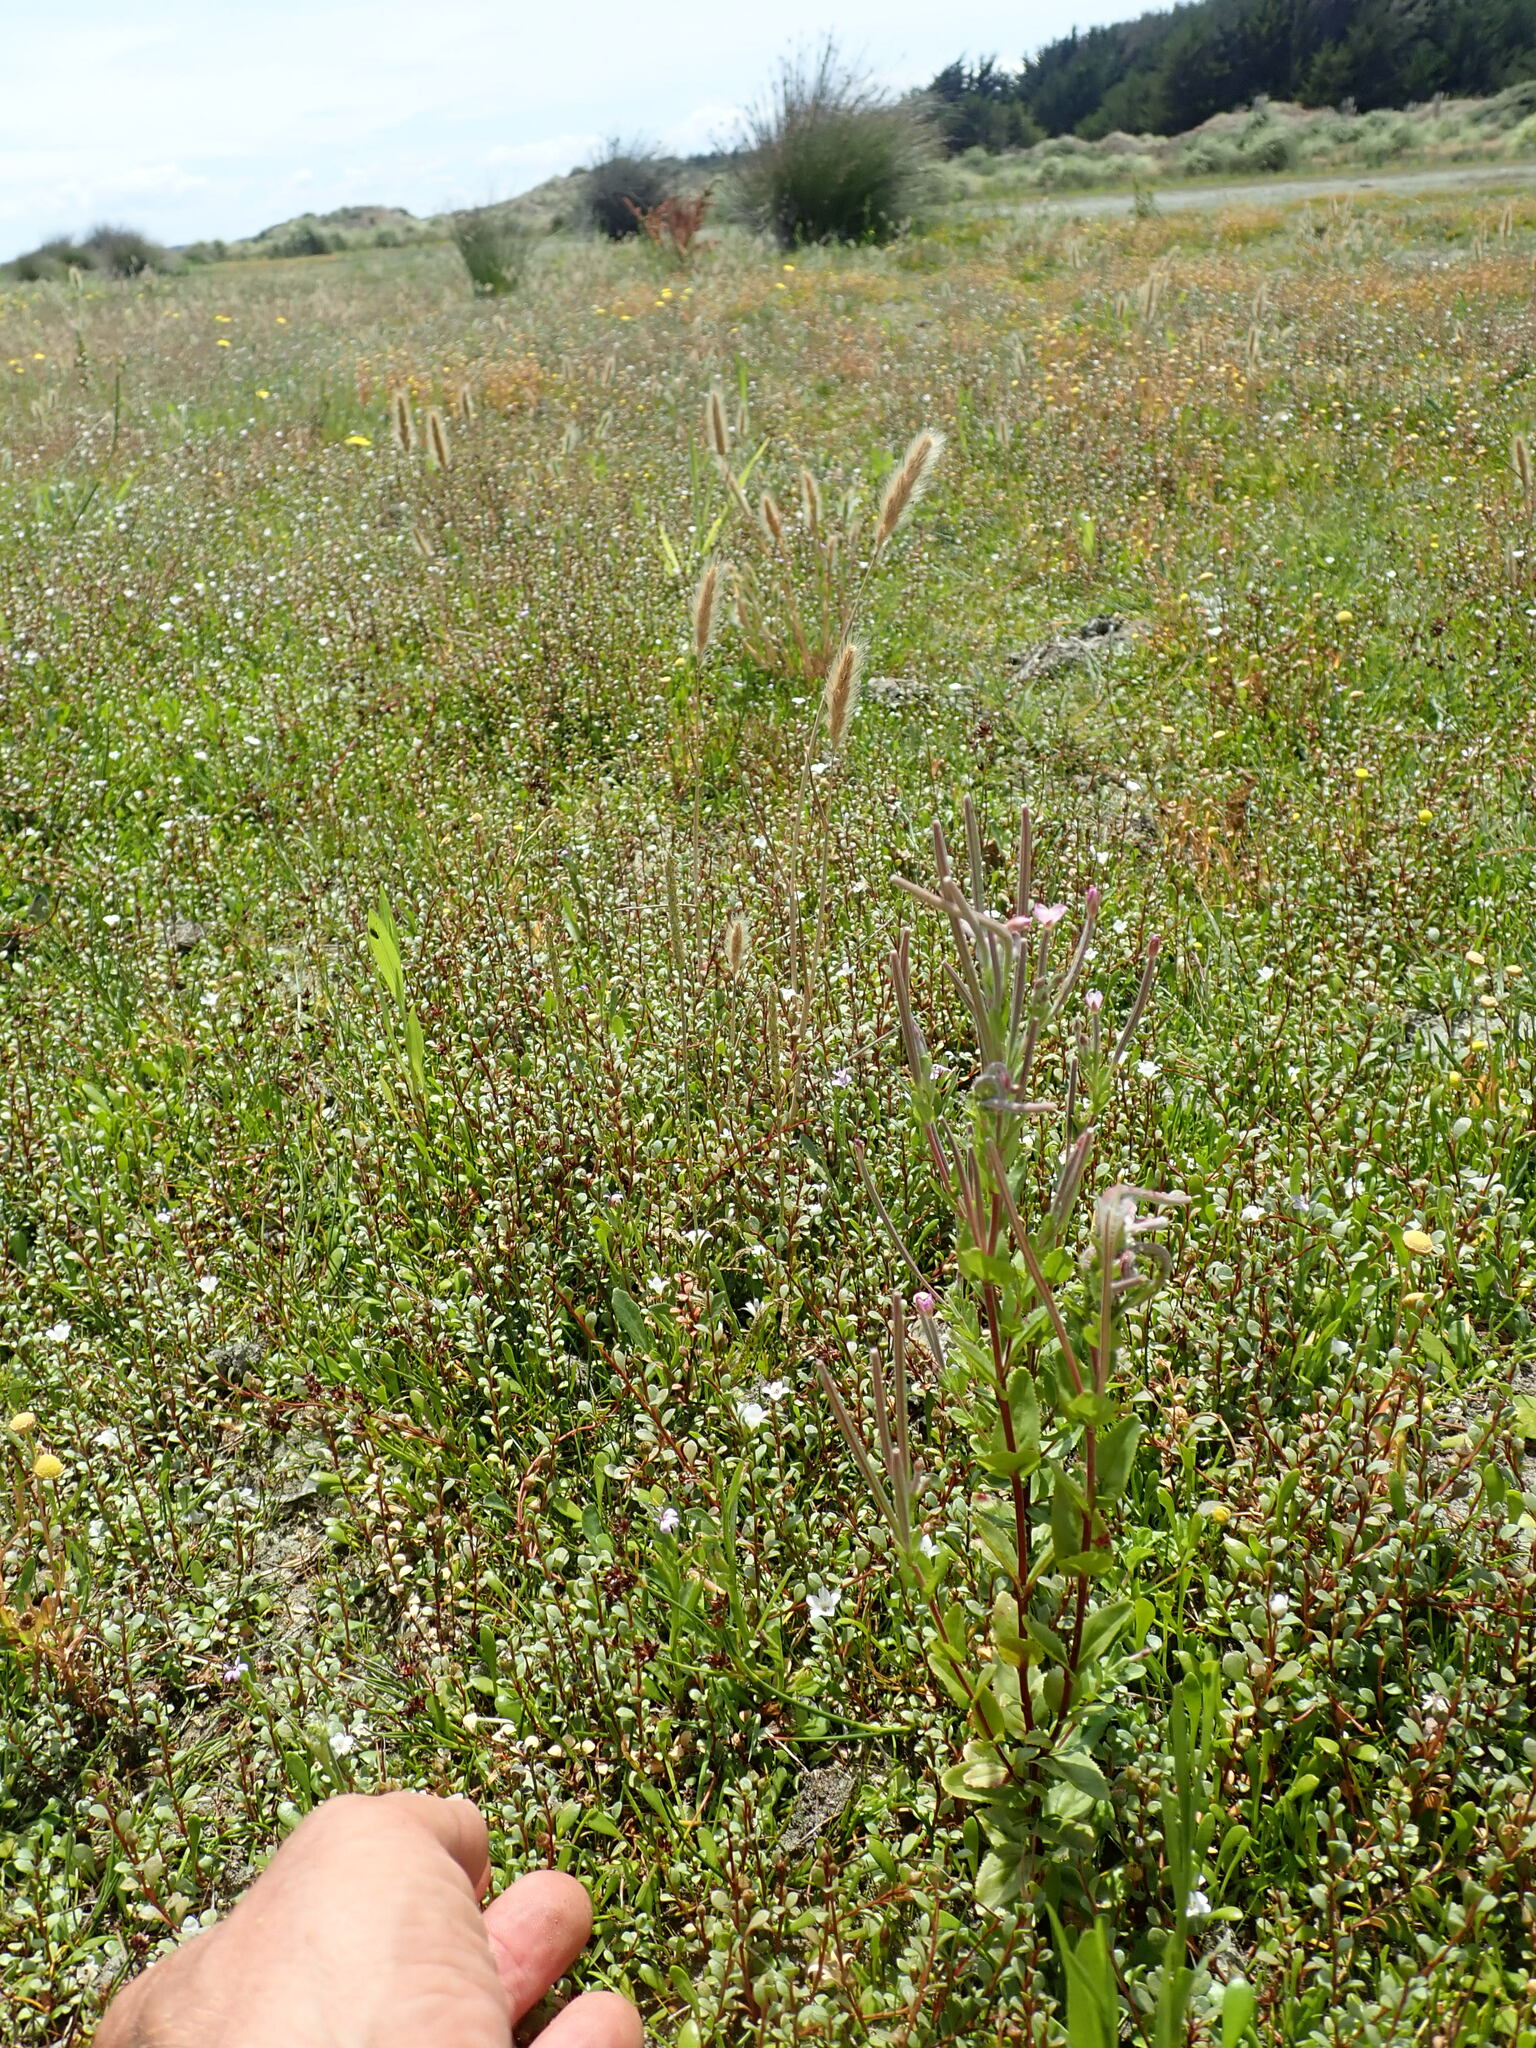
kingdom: Plantae
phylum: Tracheophyta
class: Magnoliopsida
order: Myrtales
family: Onagraceae
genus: Epilobium
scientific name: Epilobium billardiereanum
